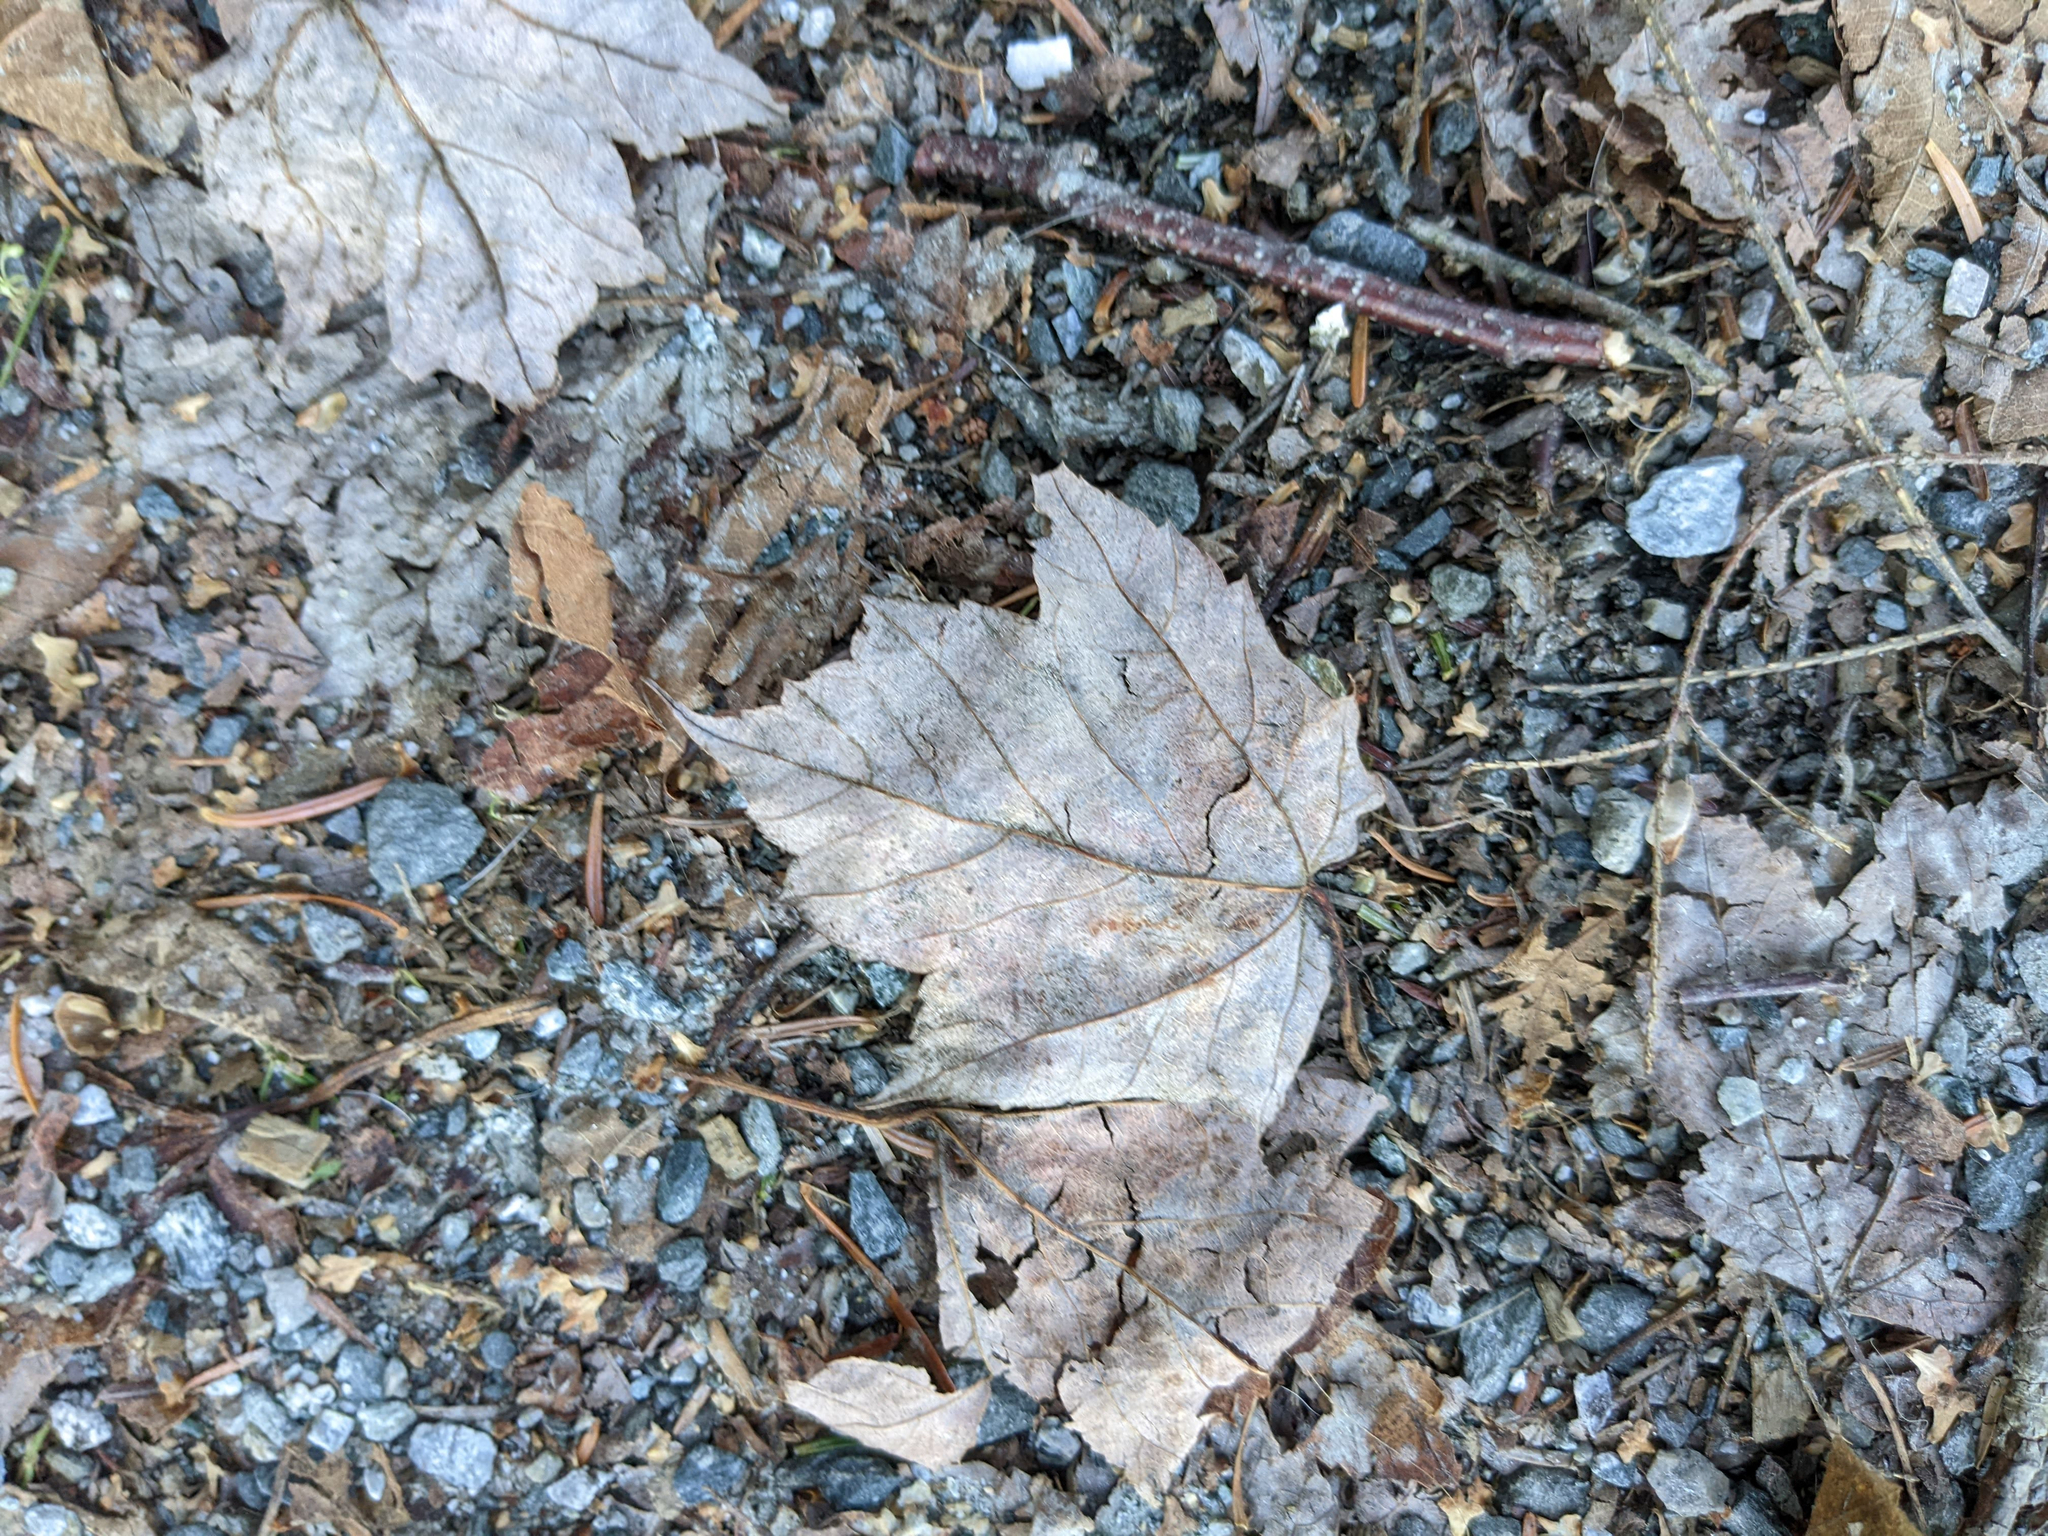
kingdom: Plantae
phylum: Tracheophyta
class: Magnoliopsida
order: Sapindales
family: Sapindaceae
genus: Acer
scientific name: Acer rubrum
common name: Red maple
